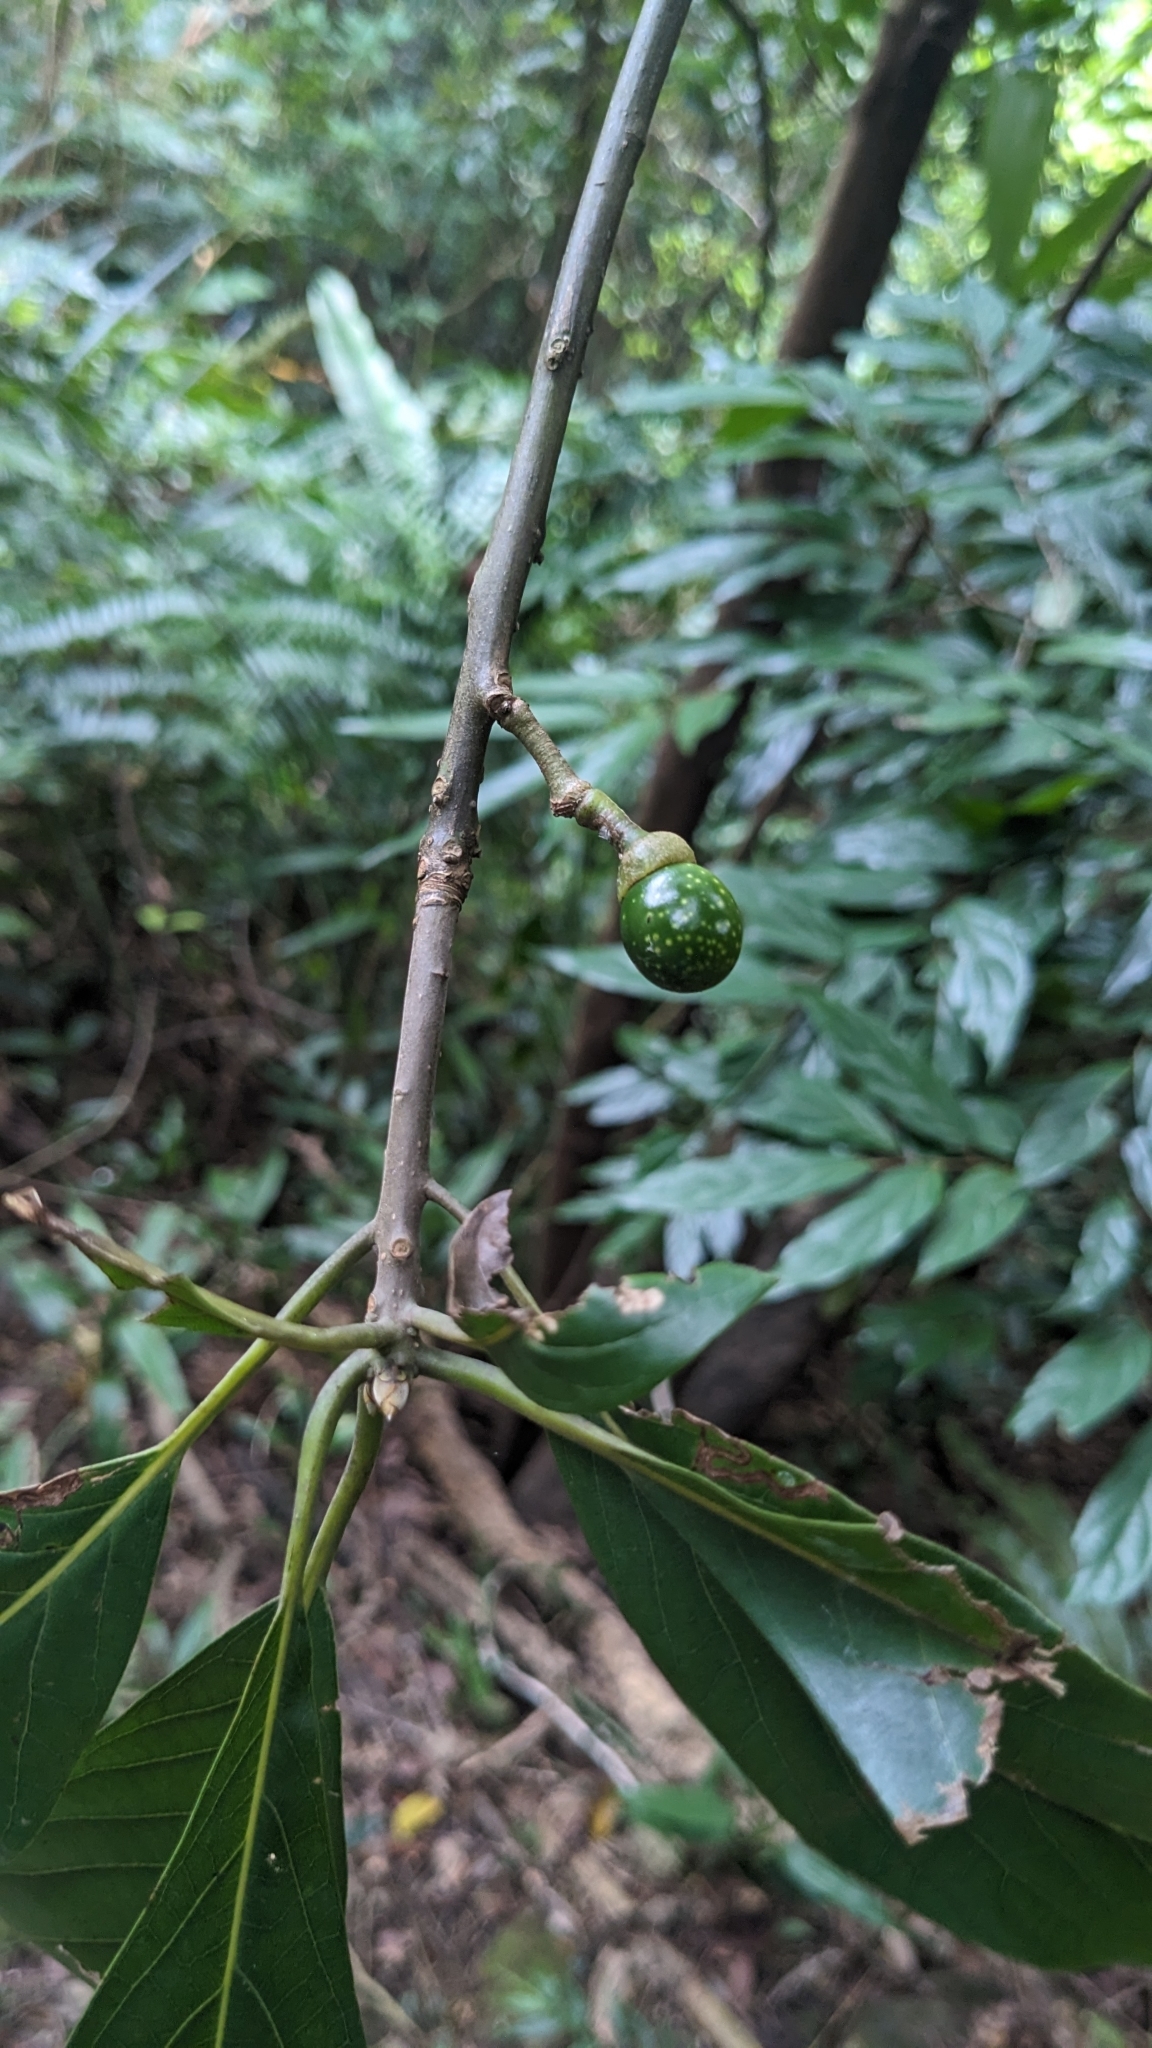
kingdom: Plantae
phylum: Tracheophyta
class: Magnoliopsida
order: Laurales
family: Lauraceae
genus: Lindera
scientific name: Lindera megaphylla
